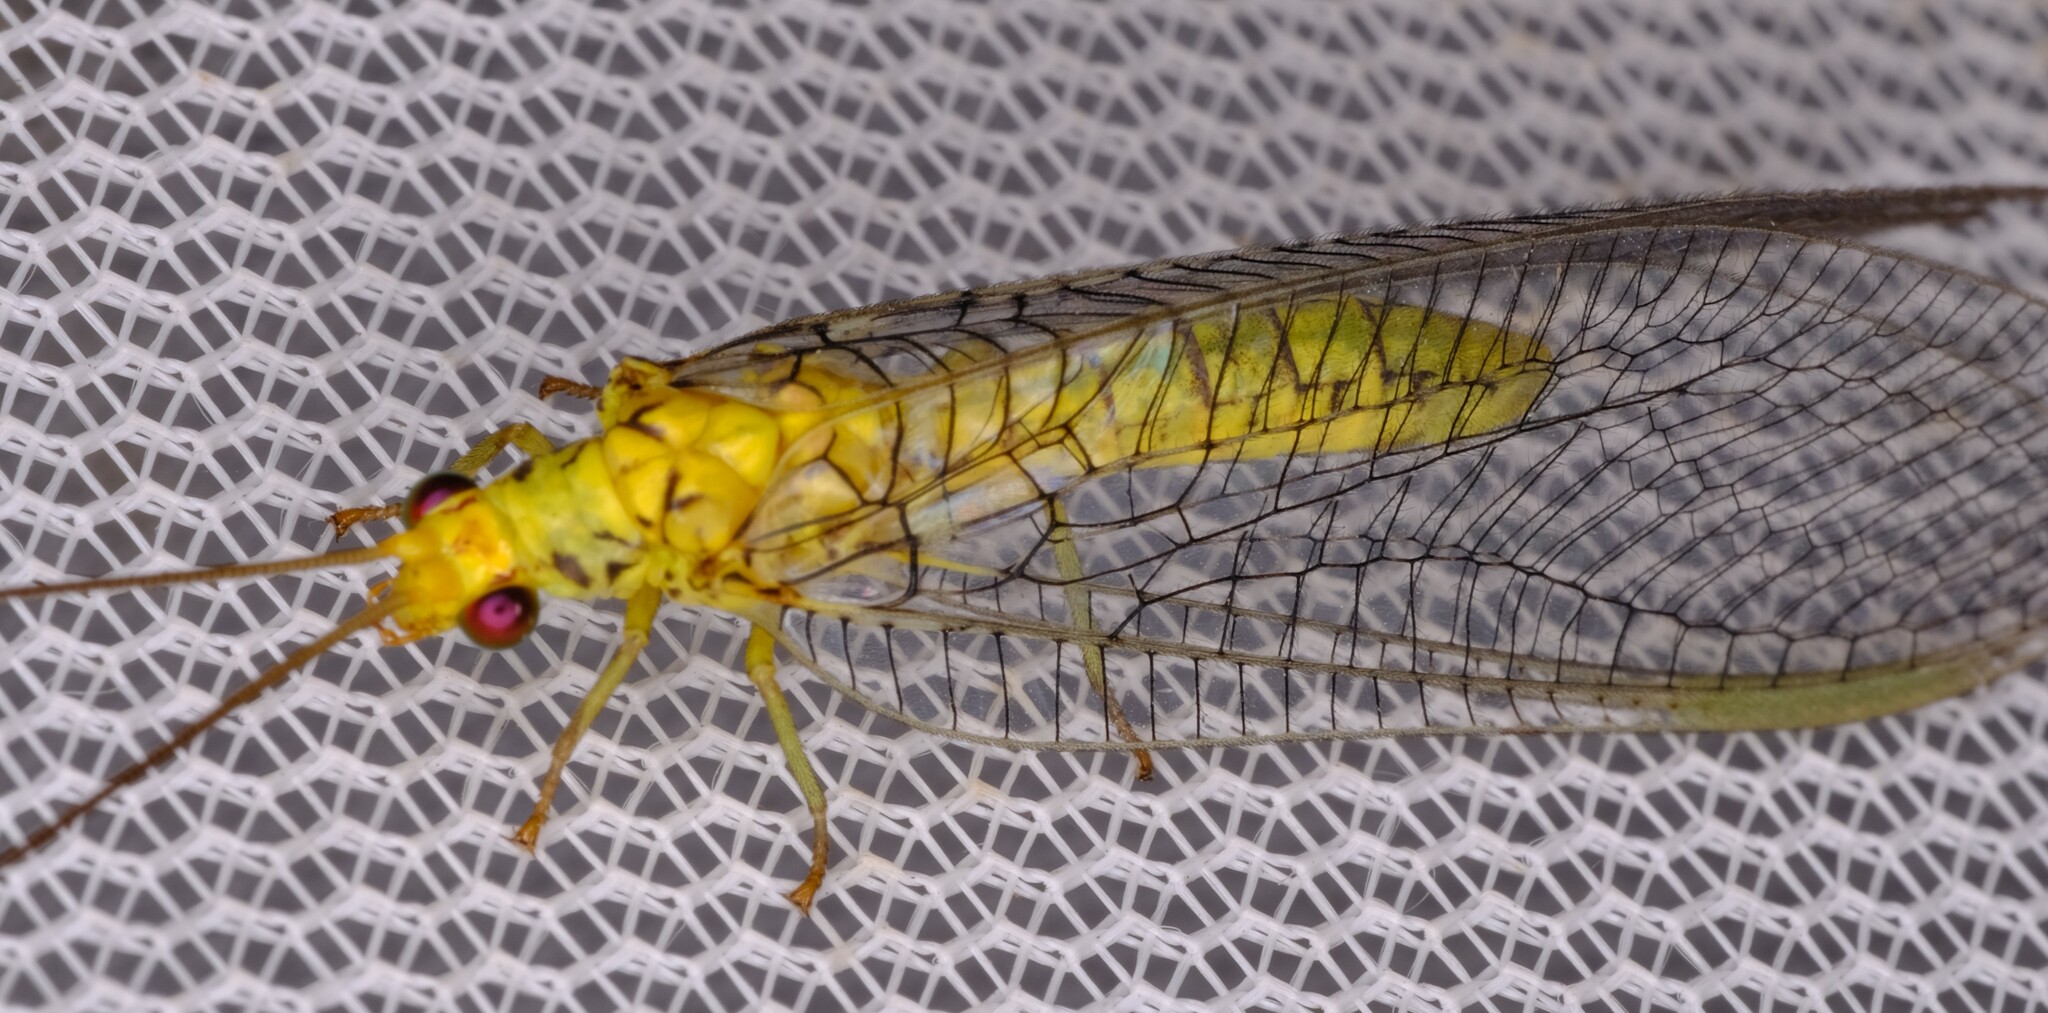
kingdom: Animalia
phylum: Arthropoda
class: Insecta
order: Neuroptera
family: Chrysopidae
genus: Italochrysa
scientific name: Italochrysa insignis
